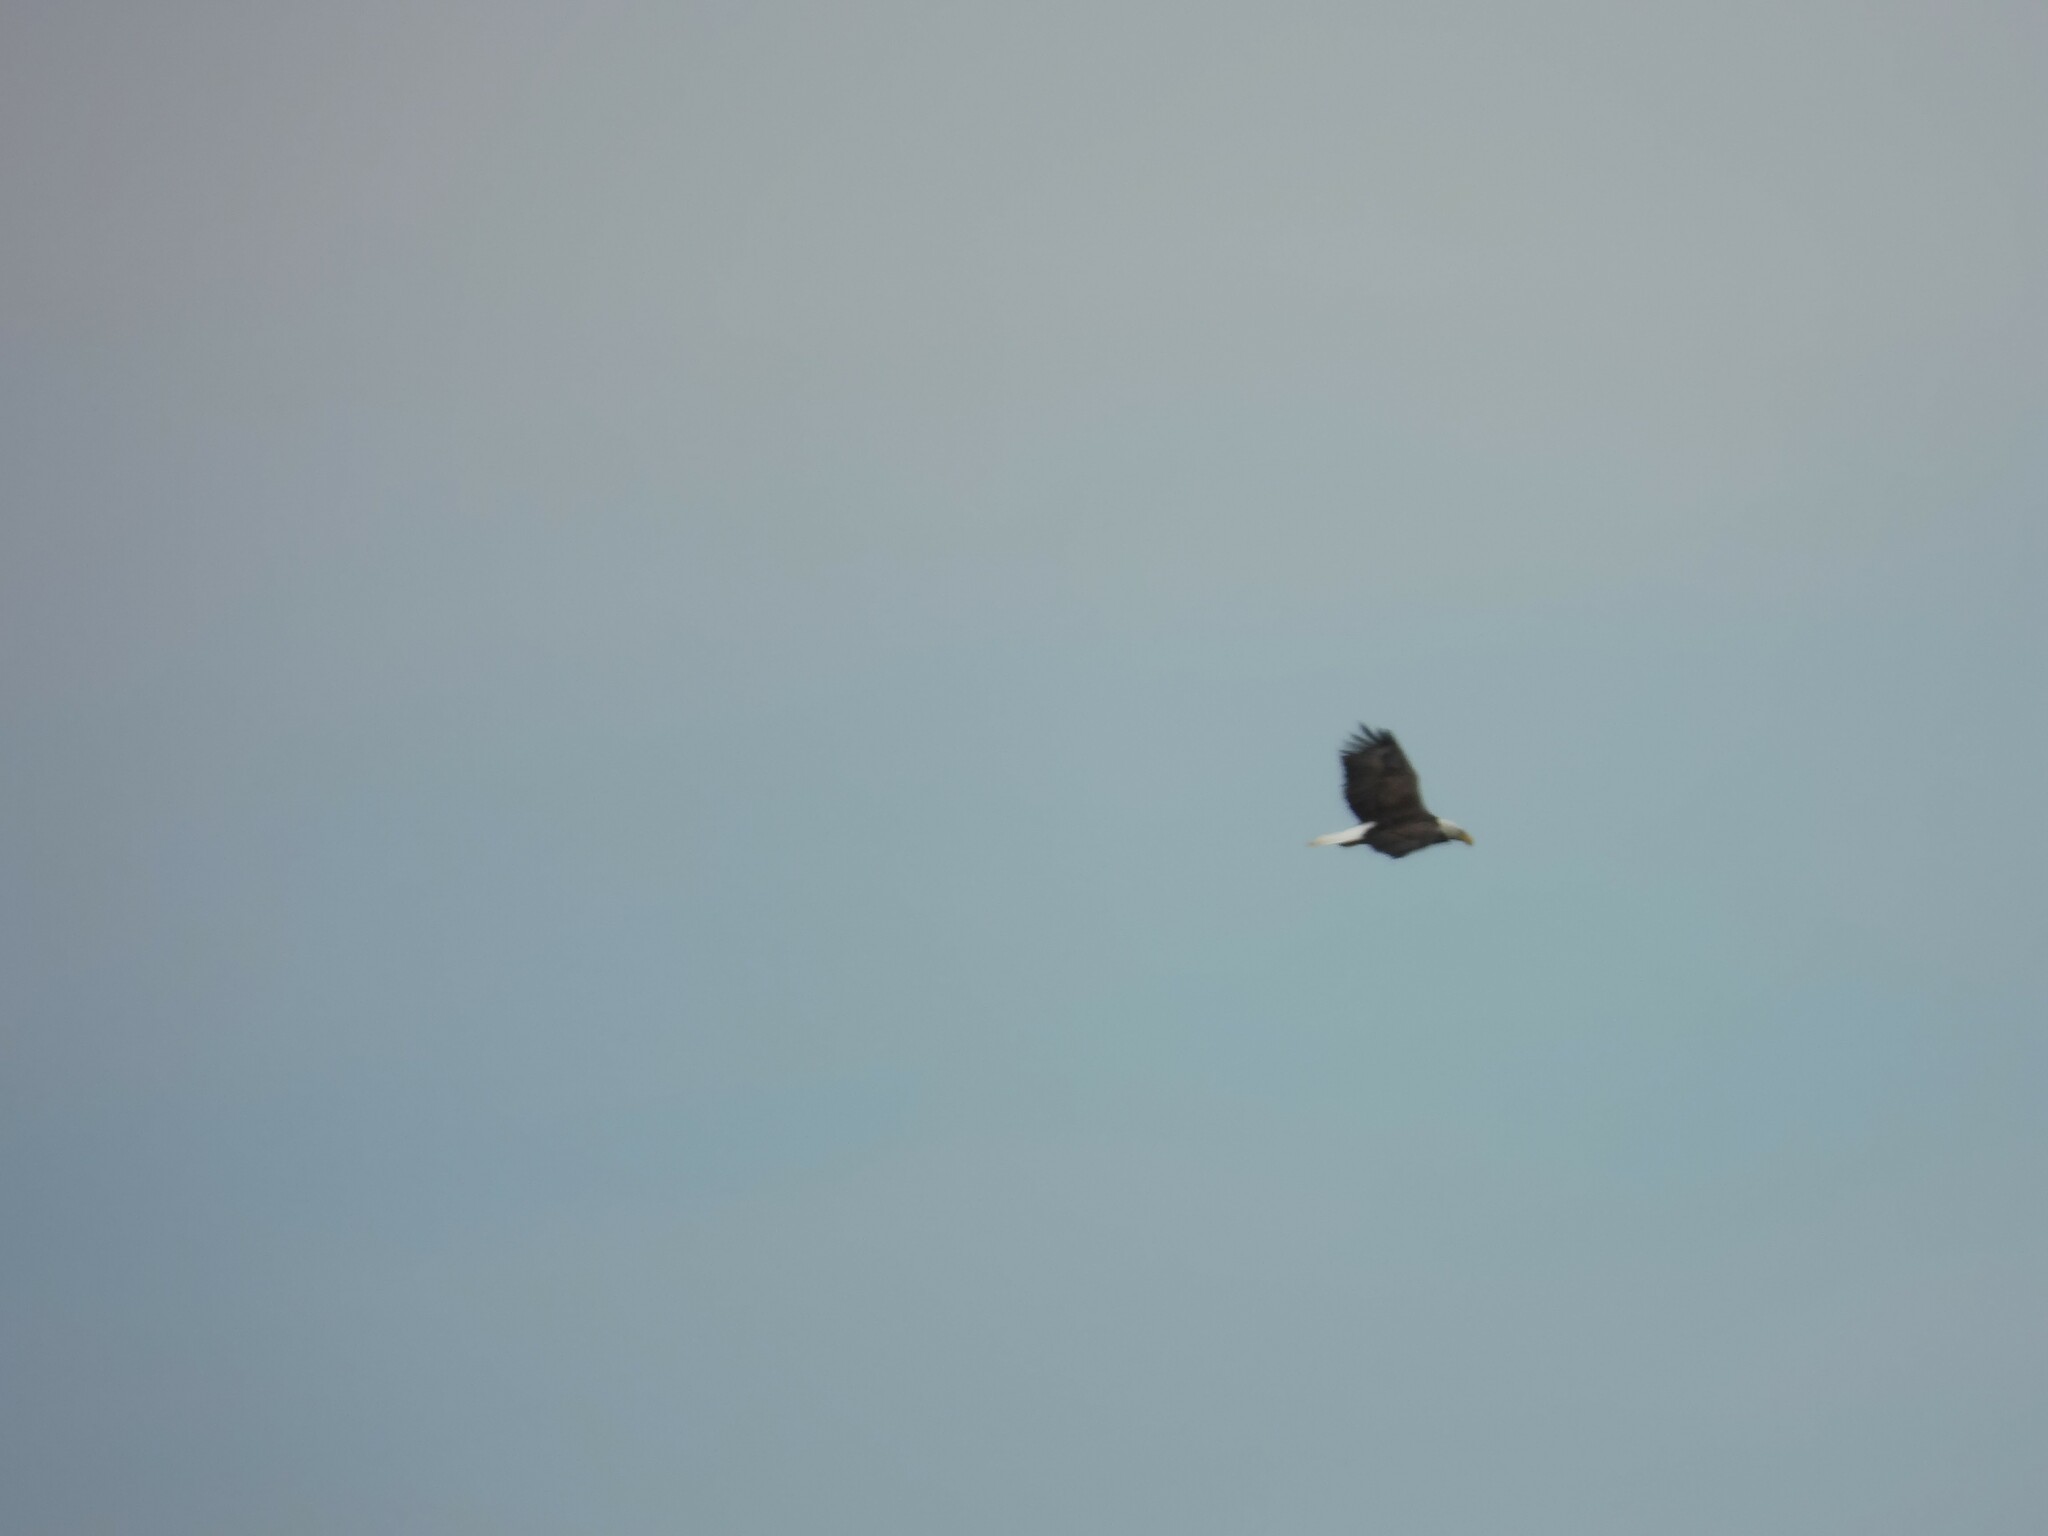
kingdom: Animalia
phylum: Chordata
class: Aves
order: Accipitriformes
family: Accipitridae
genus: Haliaeetus
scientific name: Haliaeetus leucocephalus
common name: Bald eagle
